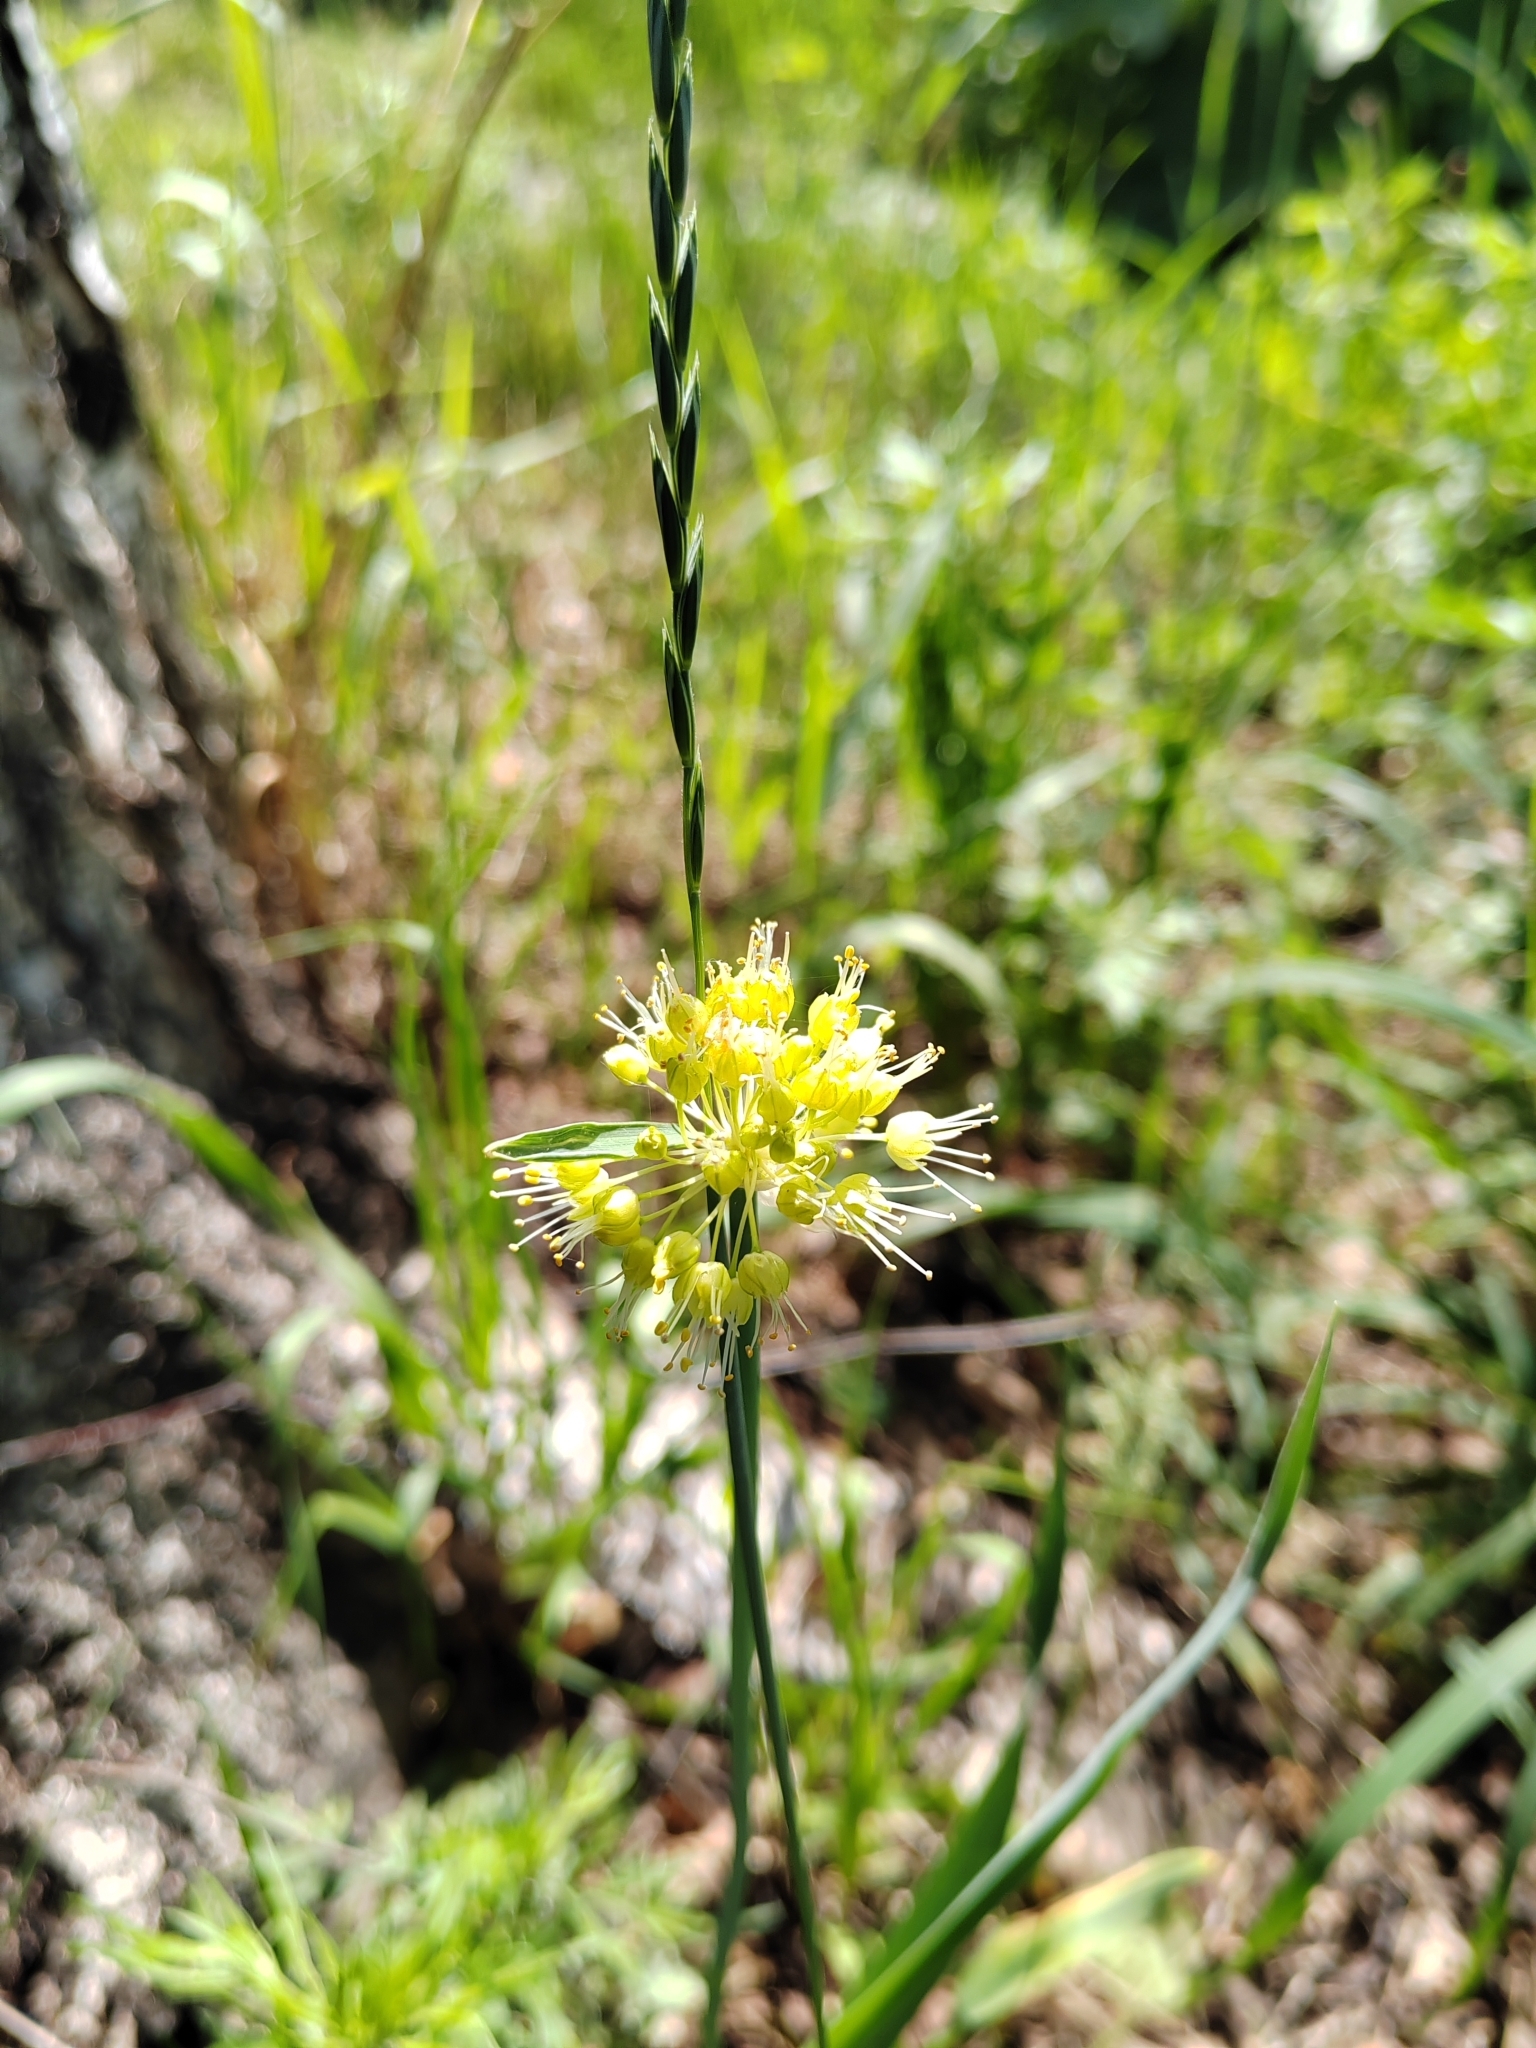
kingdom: Plantae
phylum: Tracheophyta
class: Liliopsida
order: Asparagales
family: Amaryllidaceae
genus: Allium
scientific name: Allium obliquum
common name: Oblique onion
